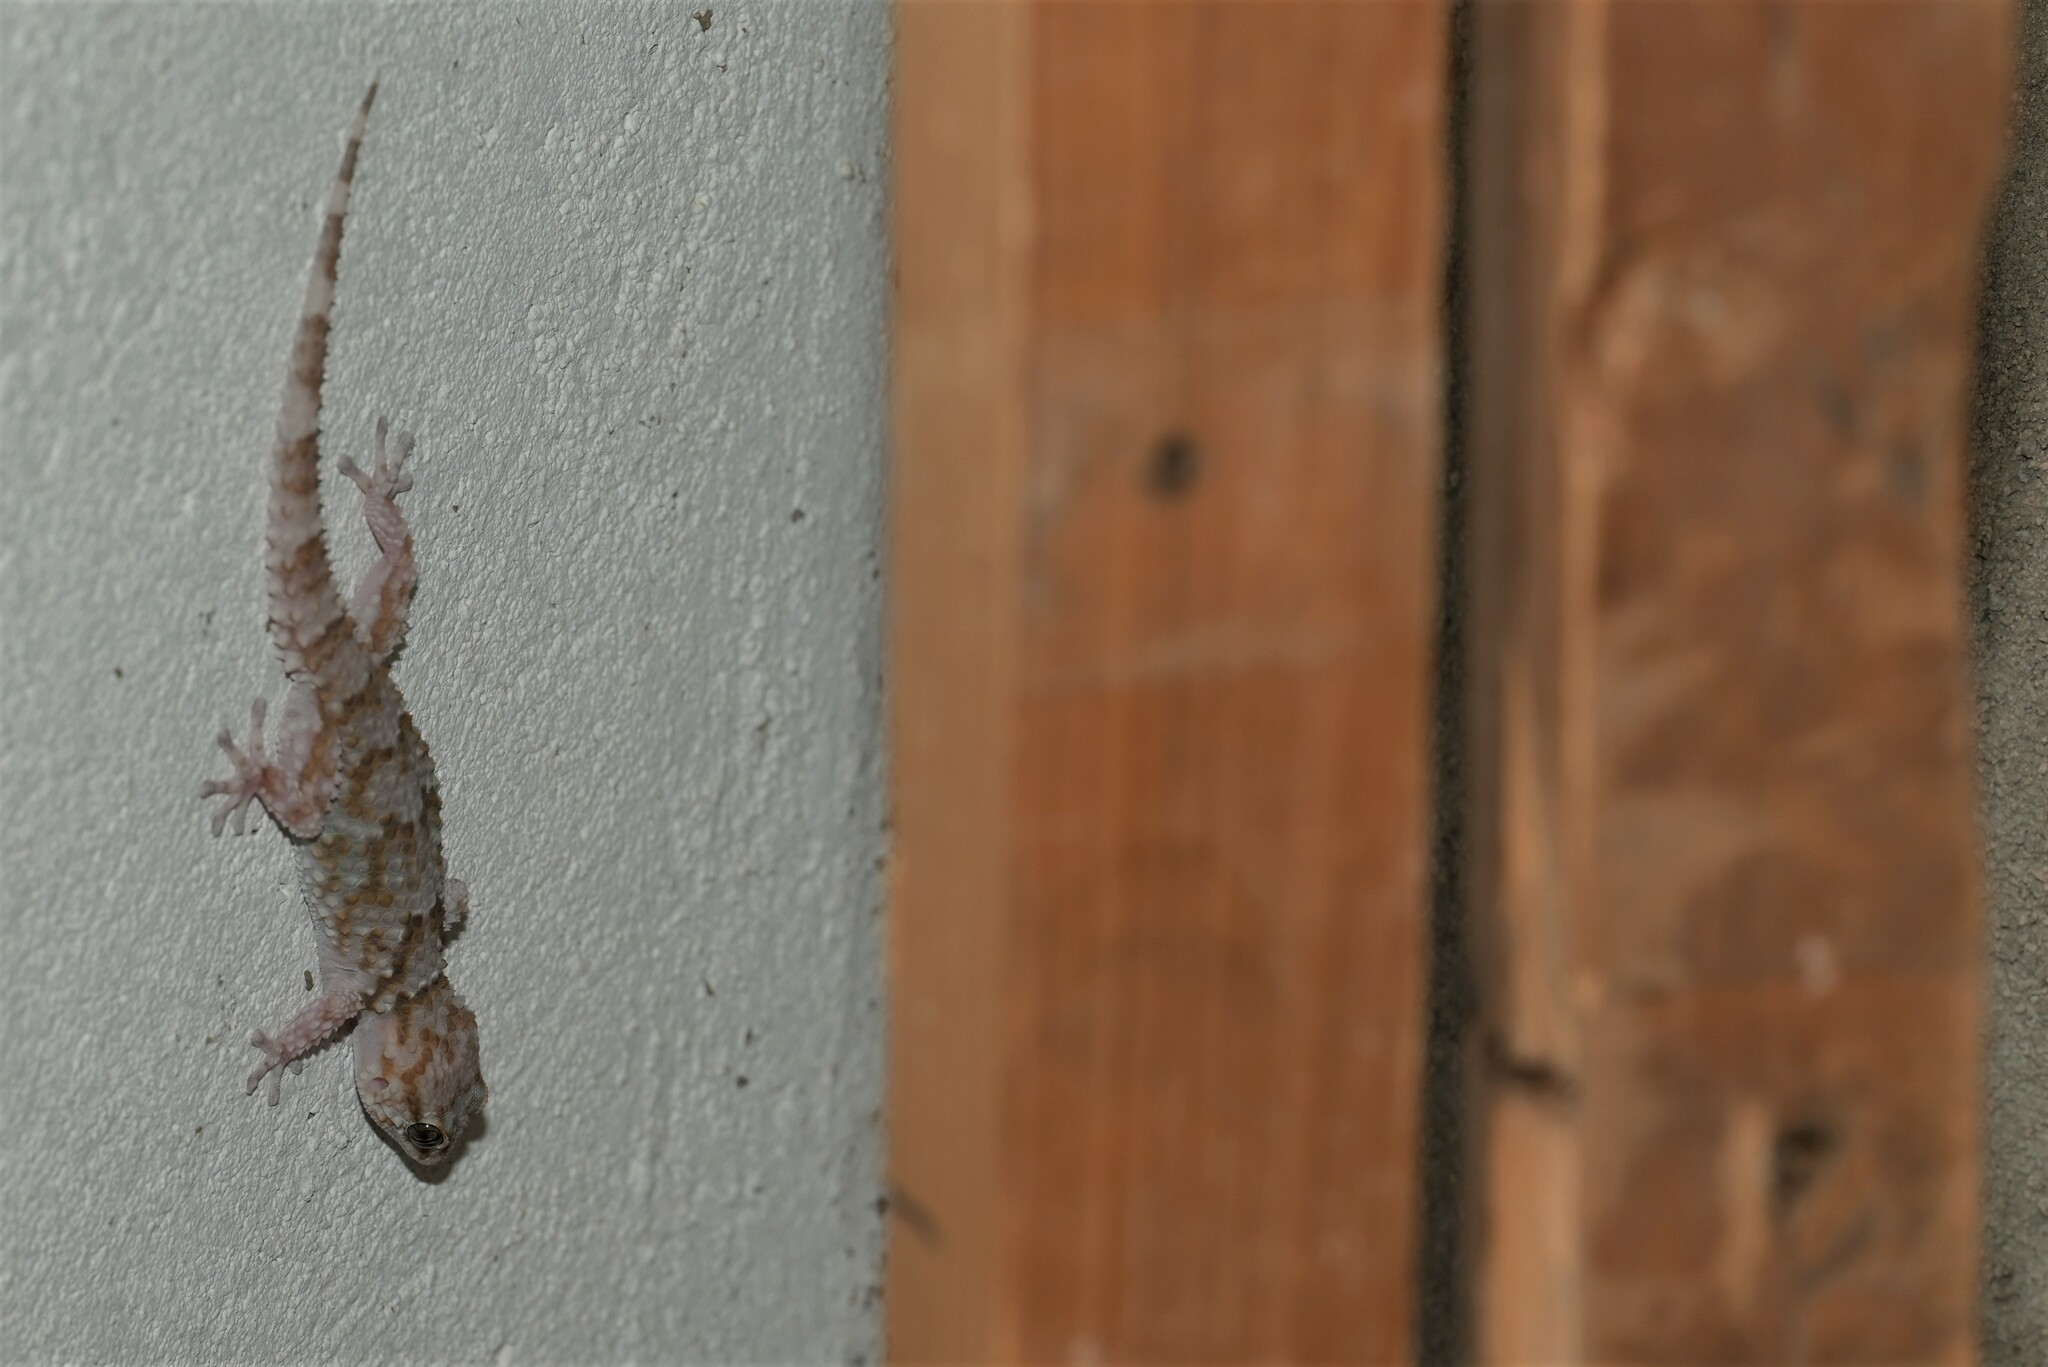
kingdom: Animalia
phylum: Chordata
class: Squamata
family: Gekkonidae
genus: Chondrodactylus
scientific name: Chondrodactylus bibronii
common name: Bibron's gecko
